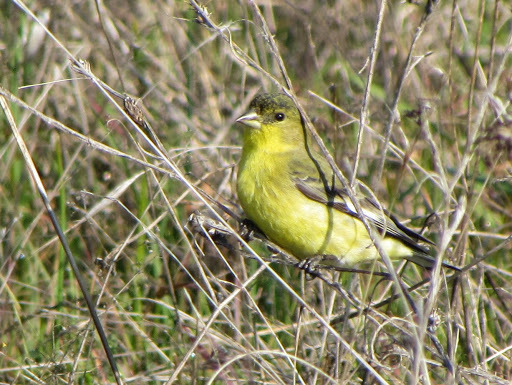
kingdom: Animalia
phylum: Chordata
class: Aves
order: Passeriformes
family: Fringillidae
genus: Spinus
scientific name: Spinus psaltria
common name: Lesser goldfinch
